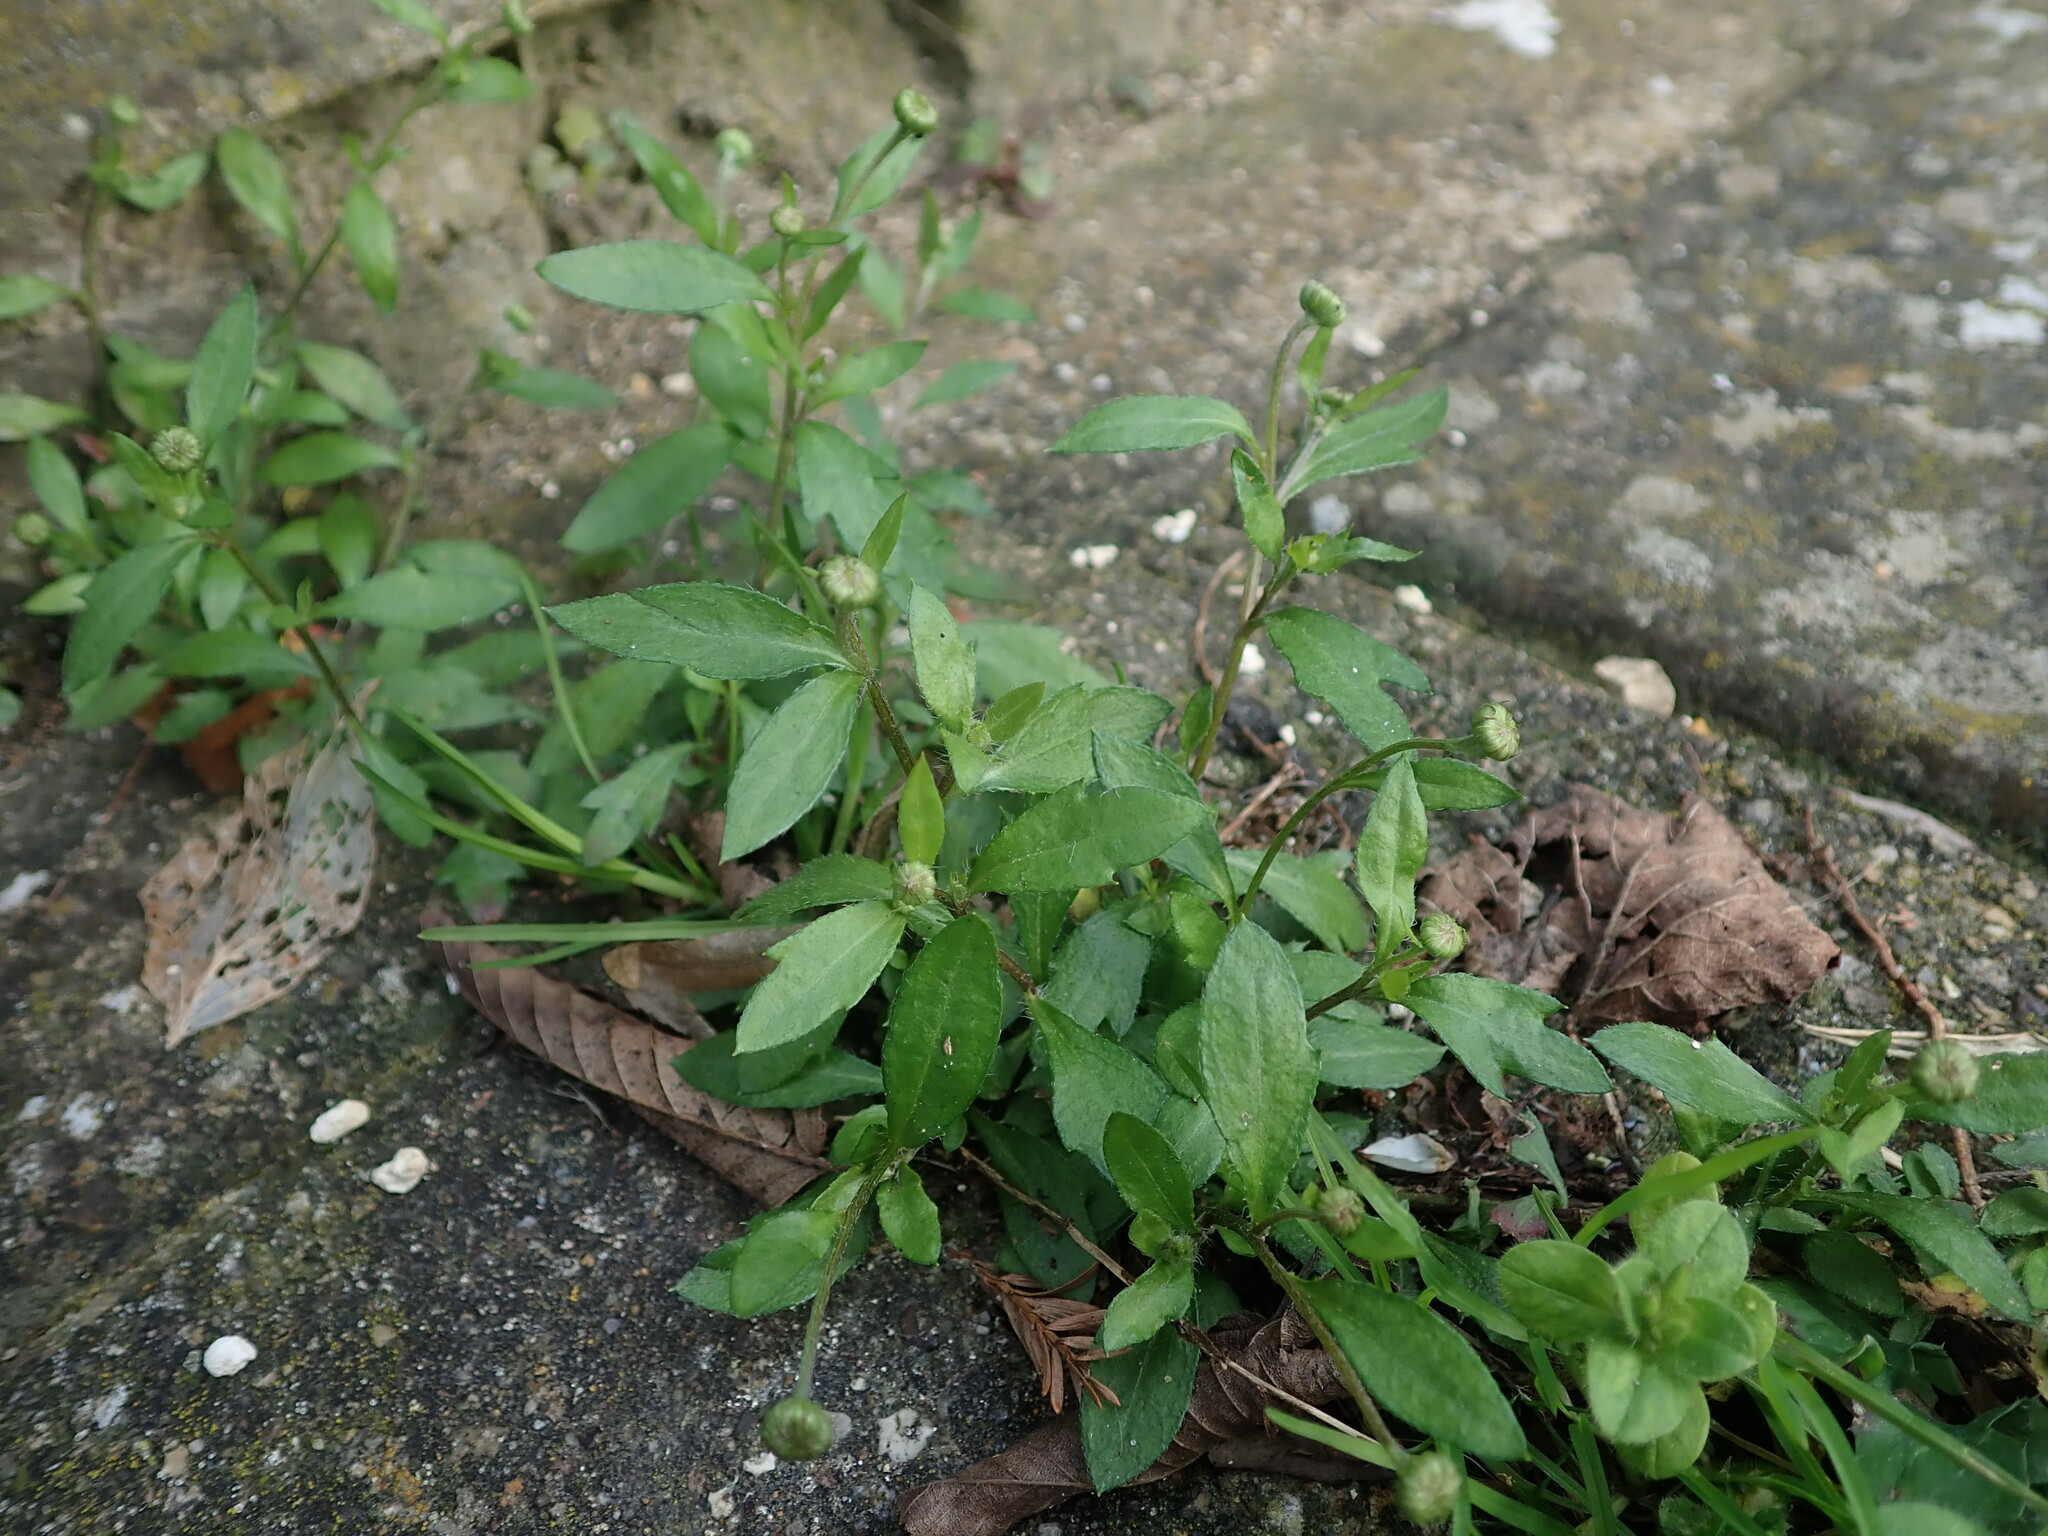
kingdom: Plantae
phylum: Tracheophyta
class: Magnoliopsida
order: Asterales
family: Asteraceae
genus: Erigeron
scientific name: Erigeron karvinskianus
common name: Mexican fleabane
